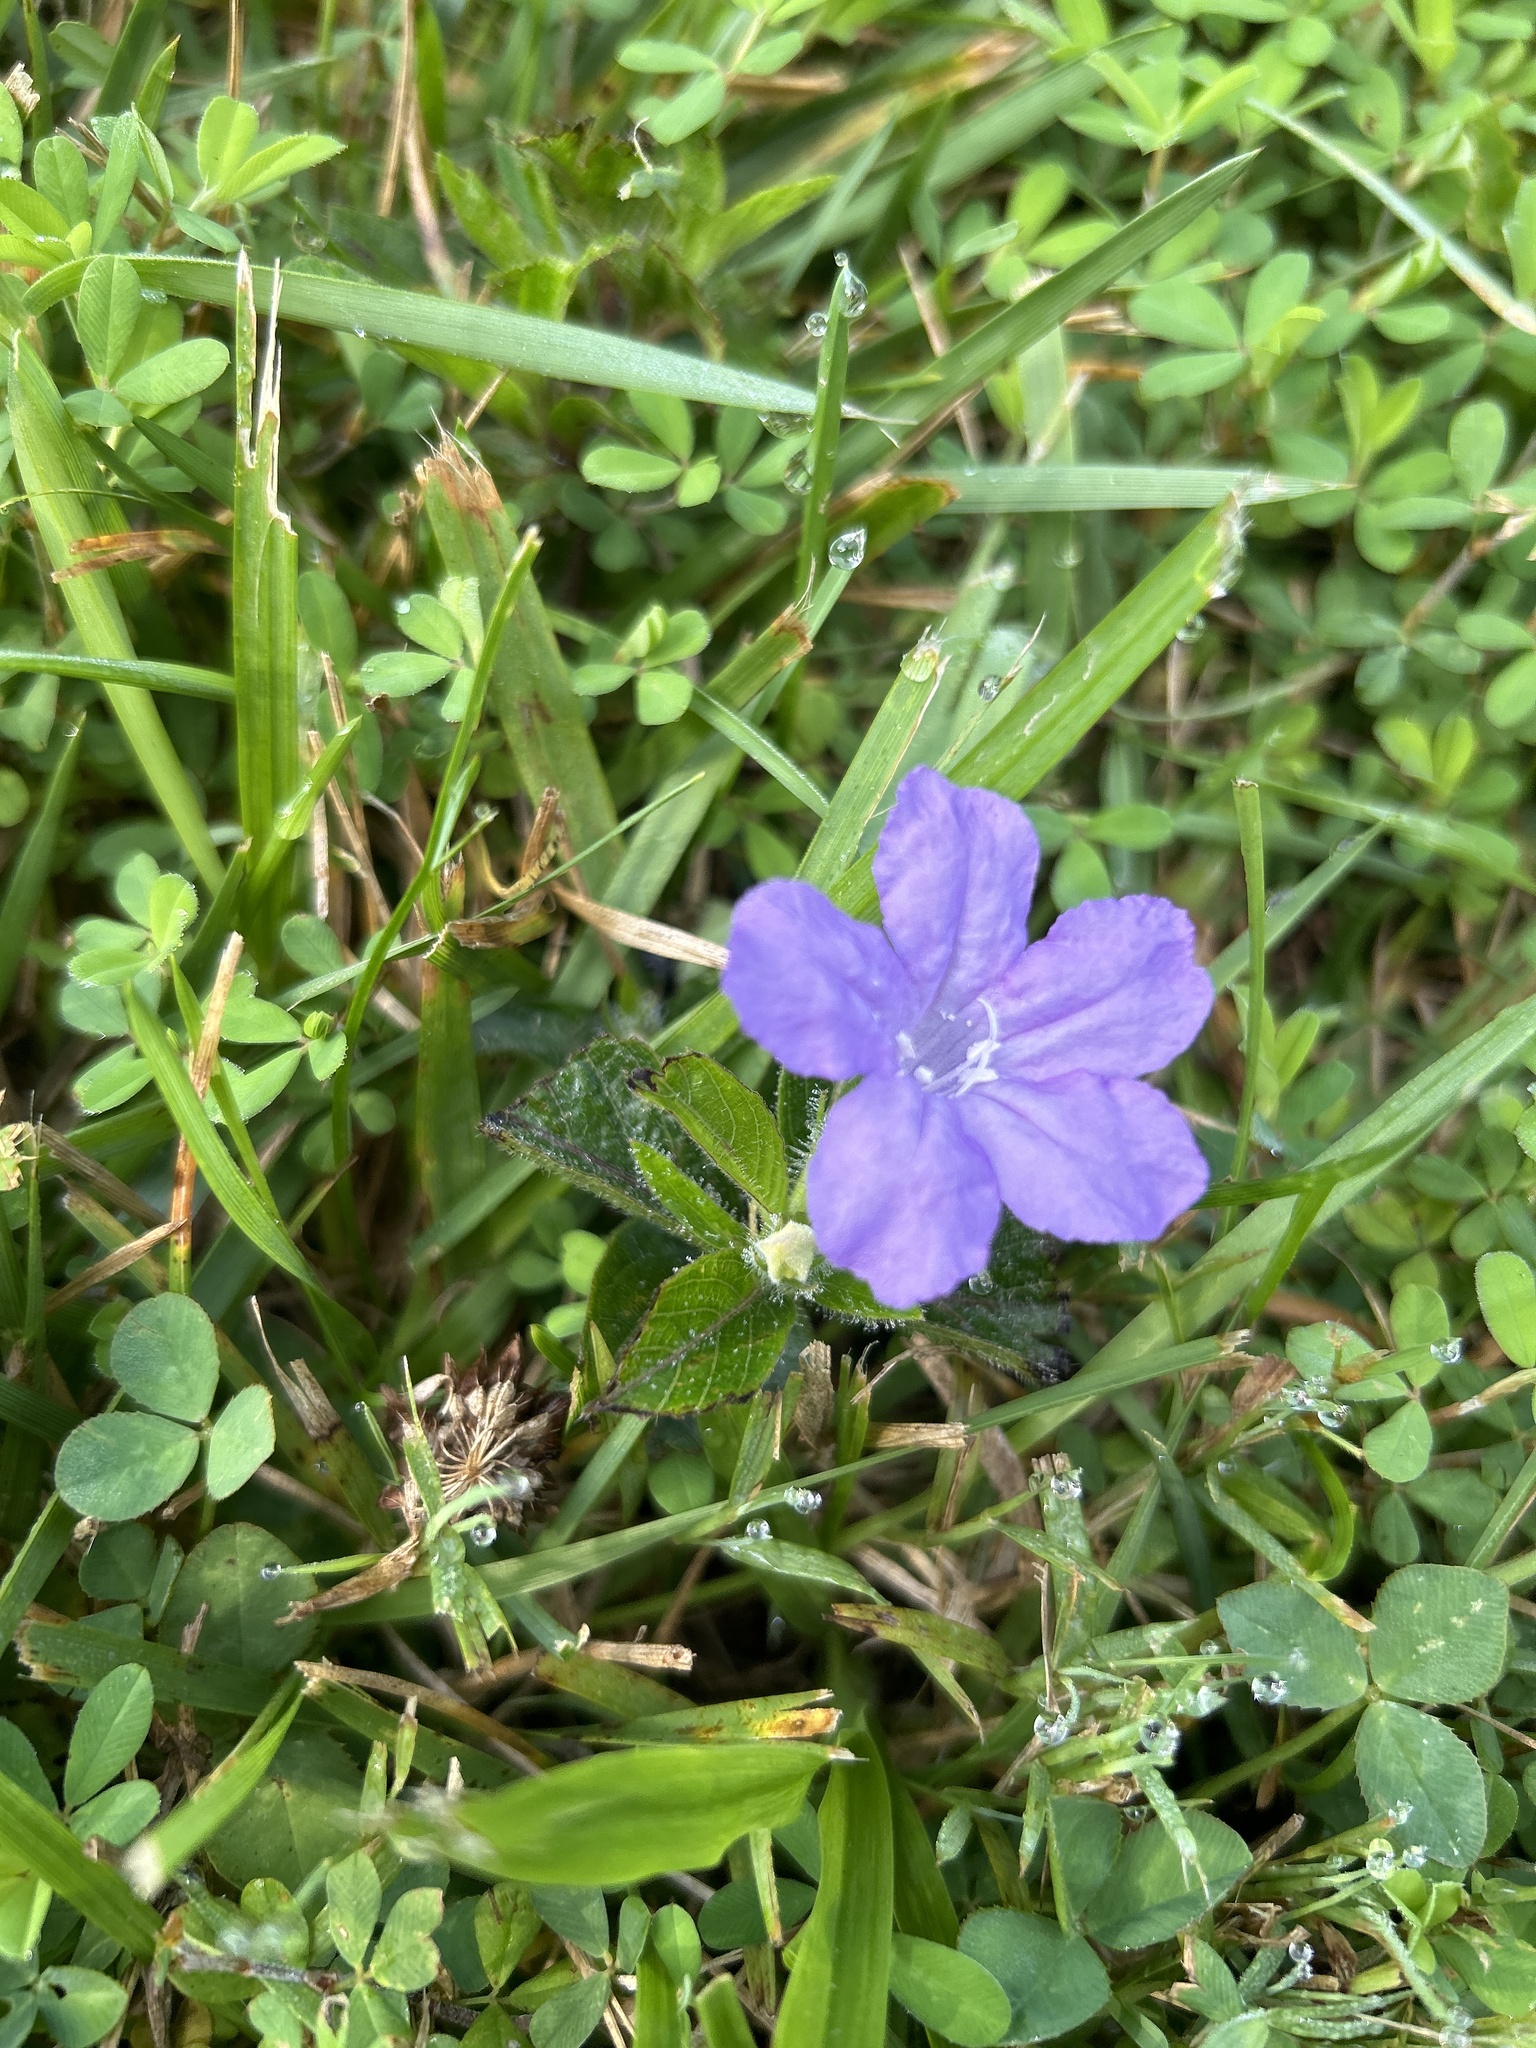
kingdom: Plantae
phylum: Tracheophyta
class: Magnoliopsida
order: Lamiales
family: Acanthaceae
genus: Ruellia
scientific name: Ruellia caroliniensis
